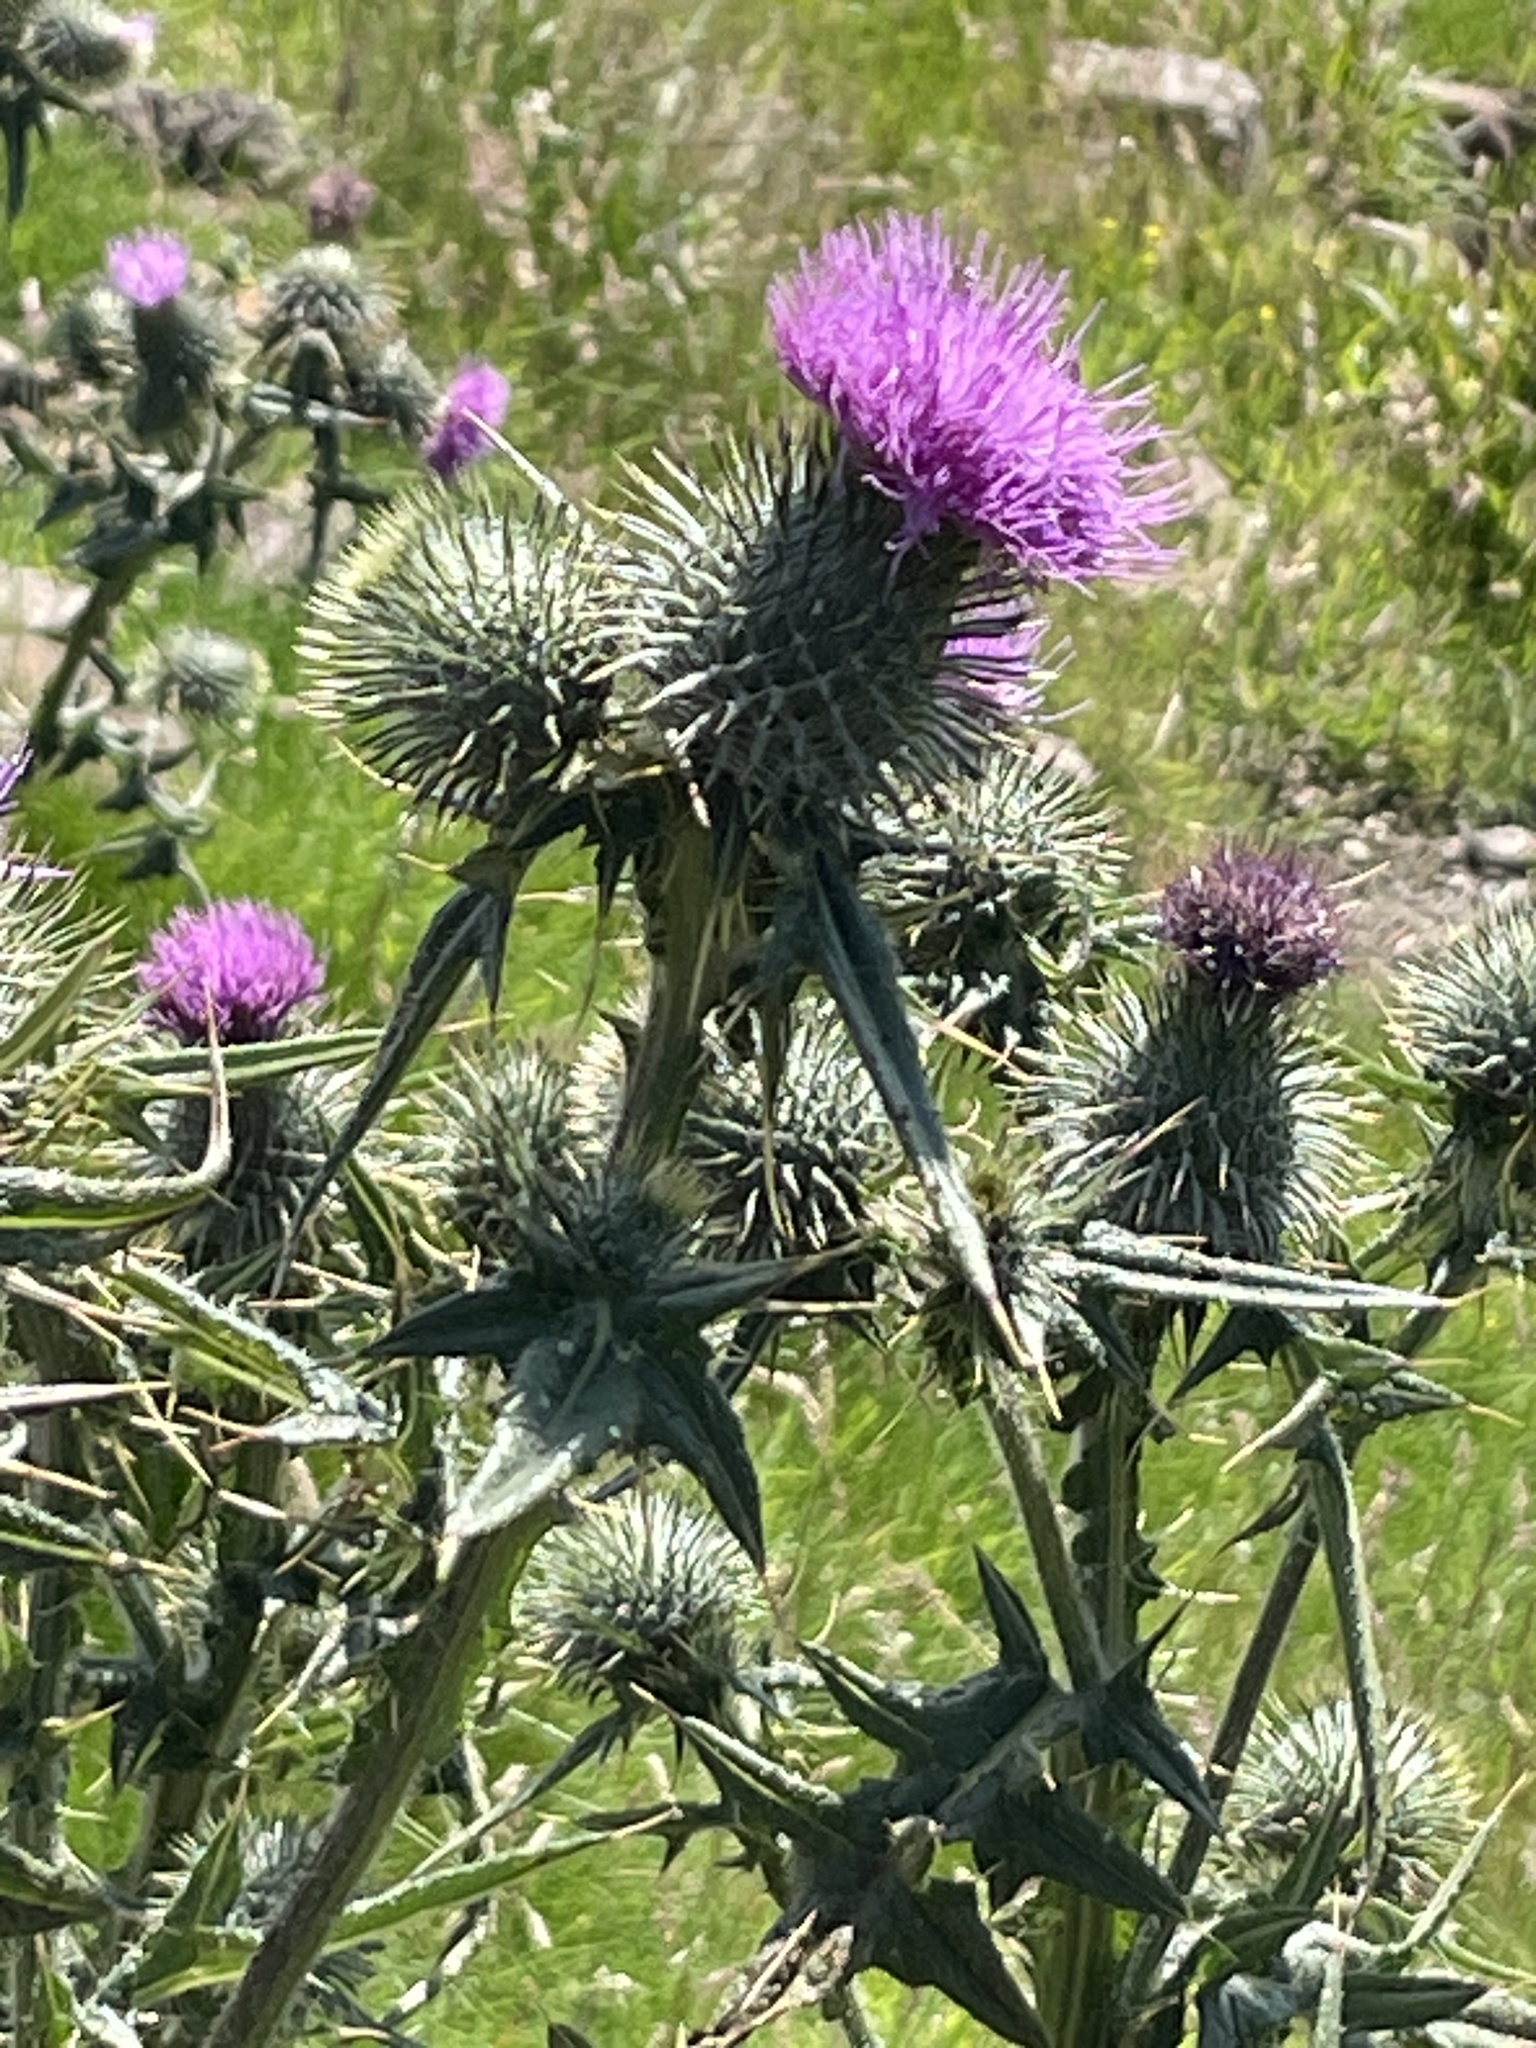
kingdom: Plantae
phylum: Tracheophyta
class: Magnoliopsida
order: Asterales
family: Asteraceae
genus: Cirsium
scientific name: Cirsium vulgare
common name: Bull thistle
